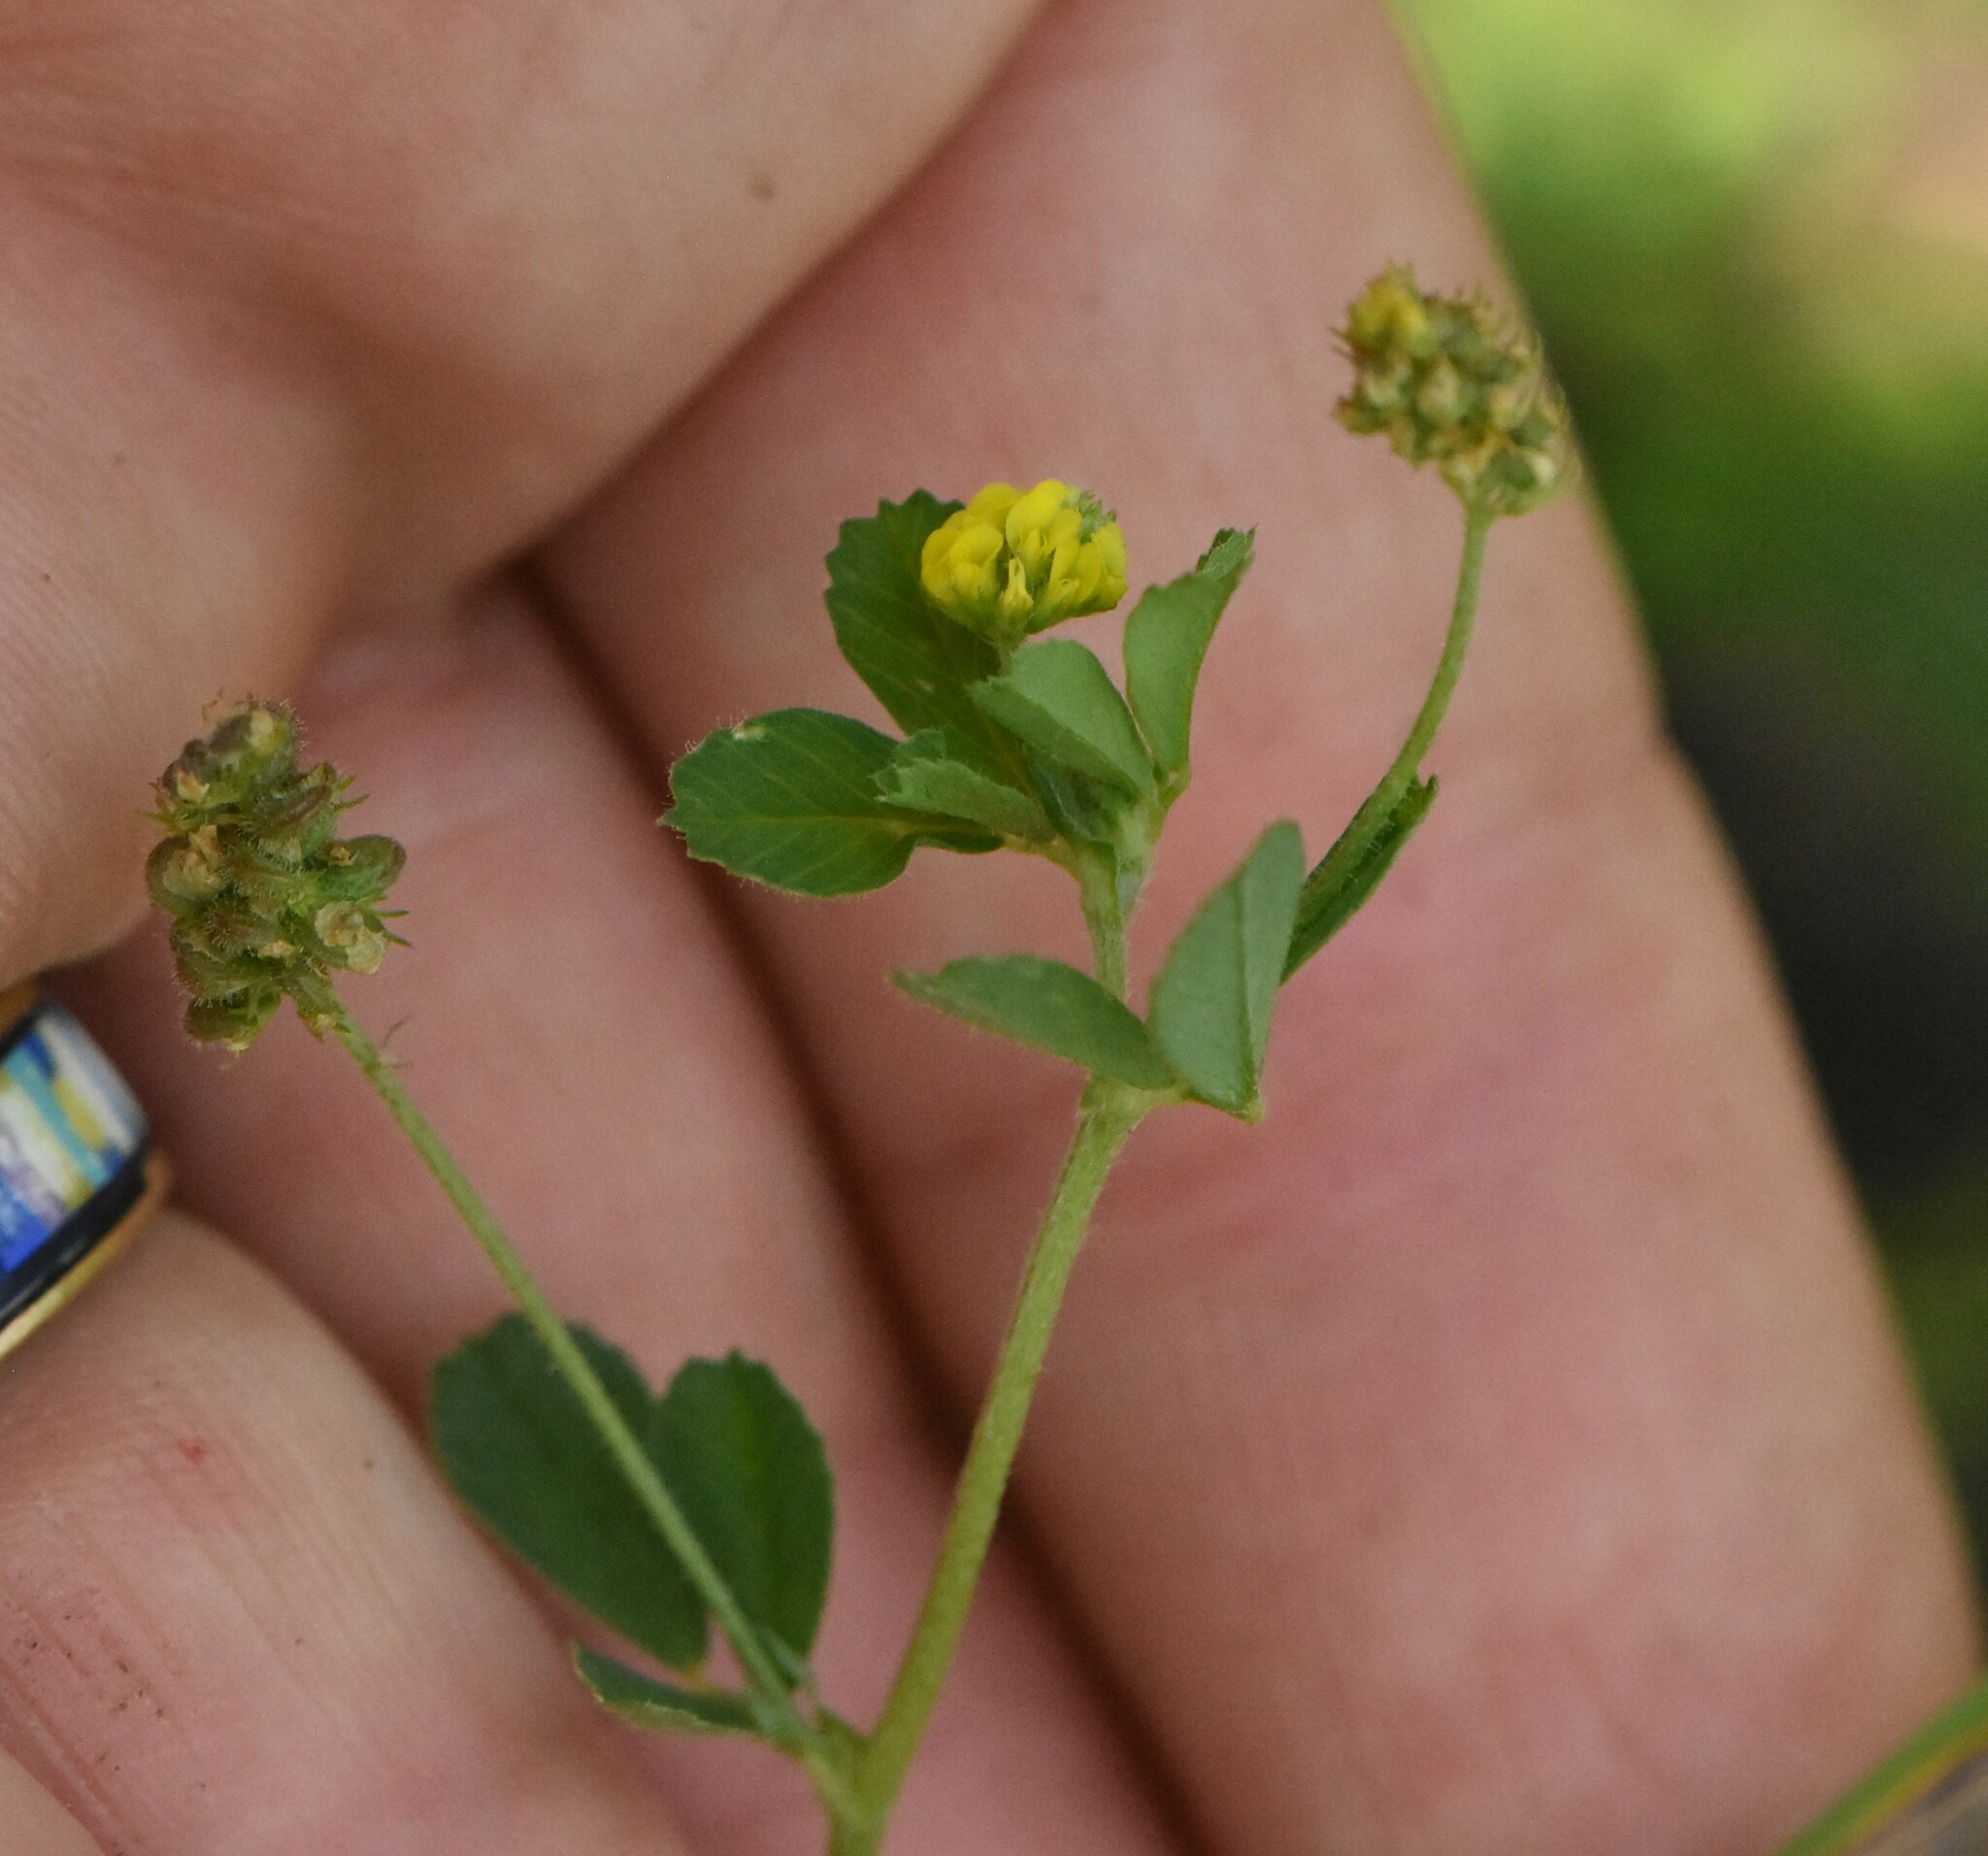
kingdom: Plantae
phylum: Tracheophyta
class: Magnoliopsida
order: Fabales
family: Fabaceae
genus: Medicago
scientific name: Medicago lupulina
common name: Black medick
